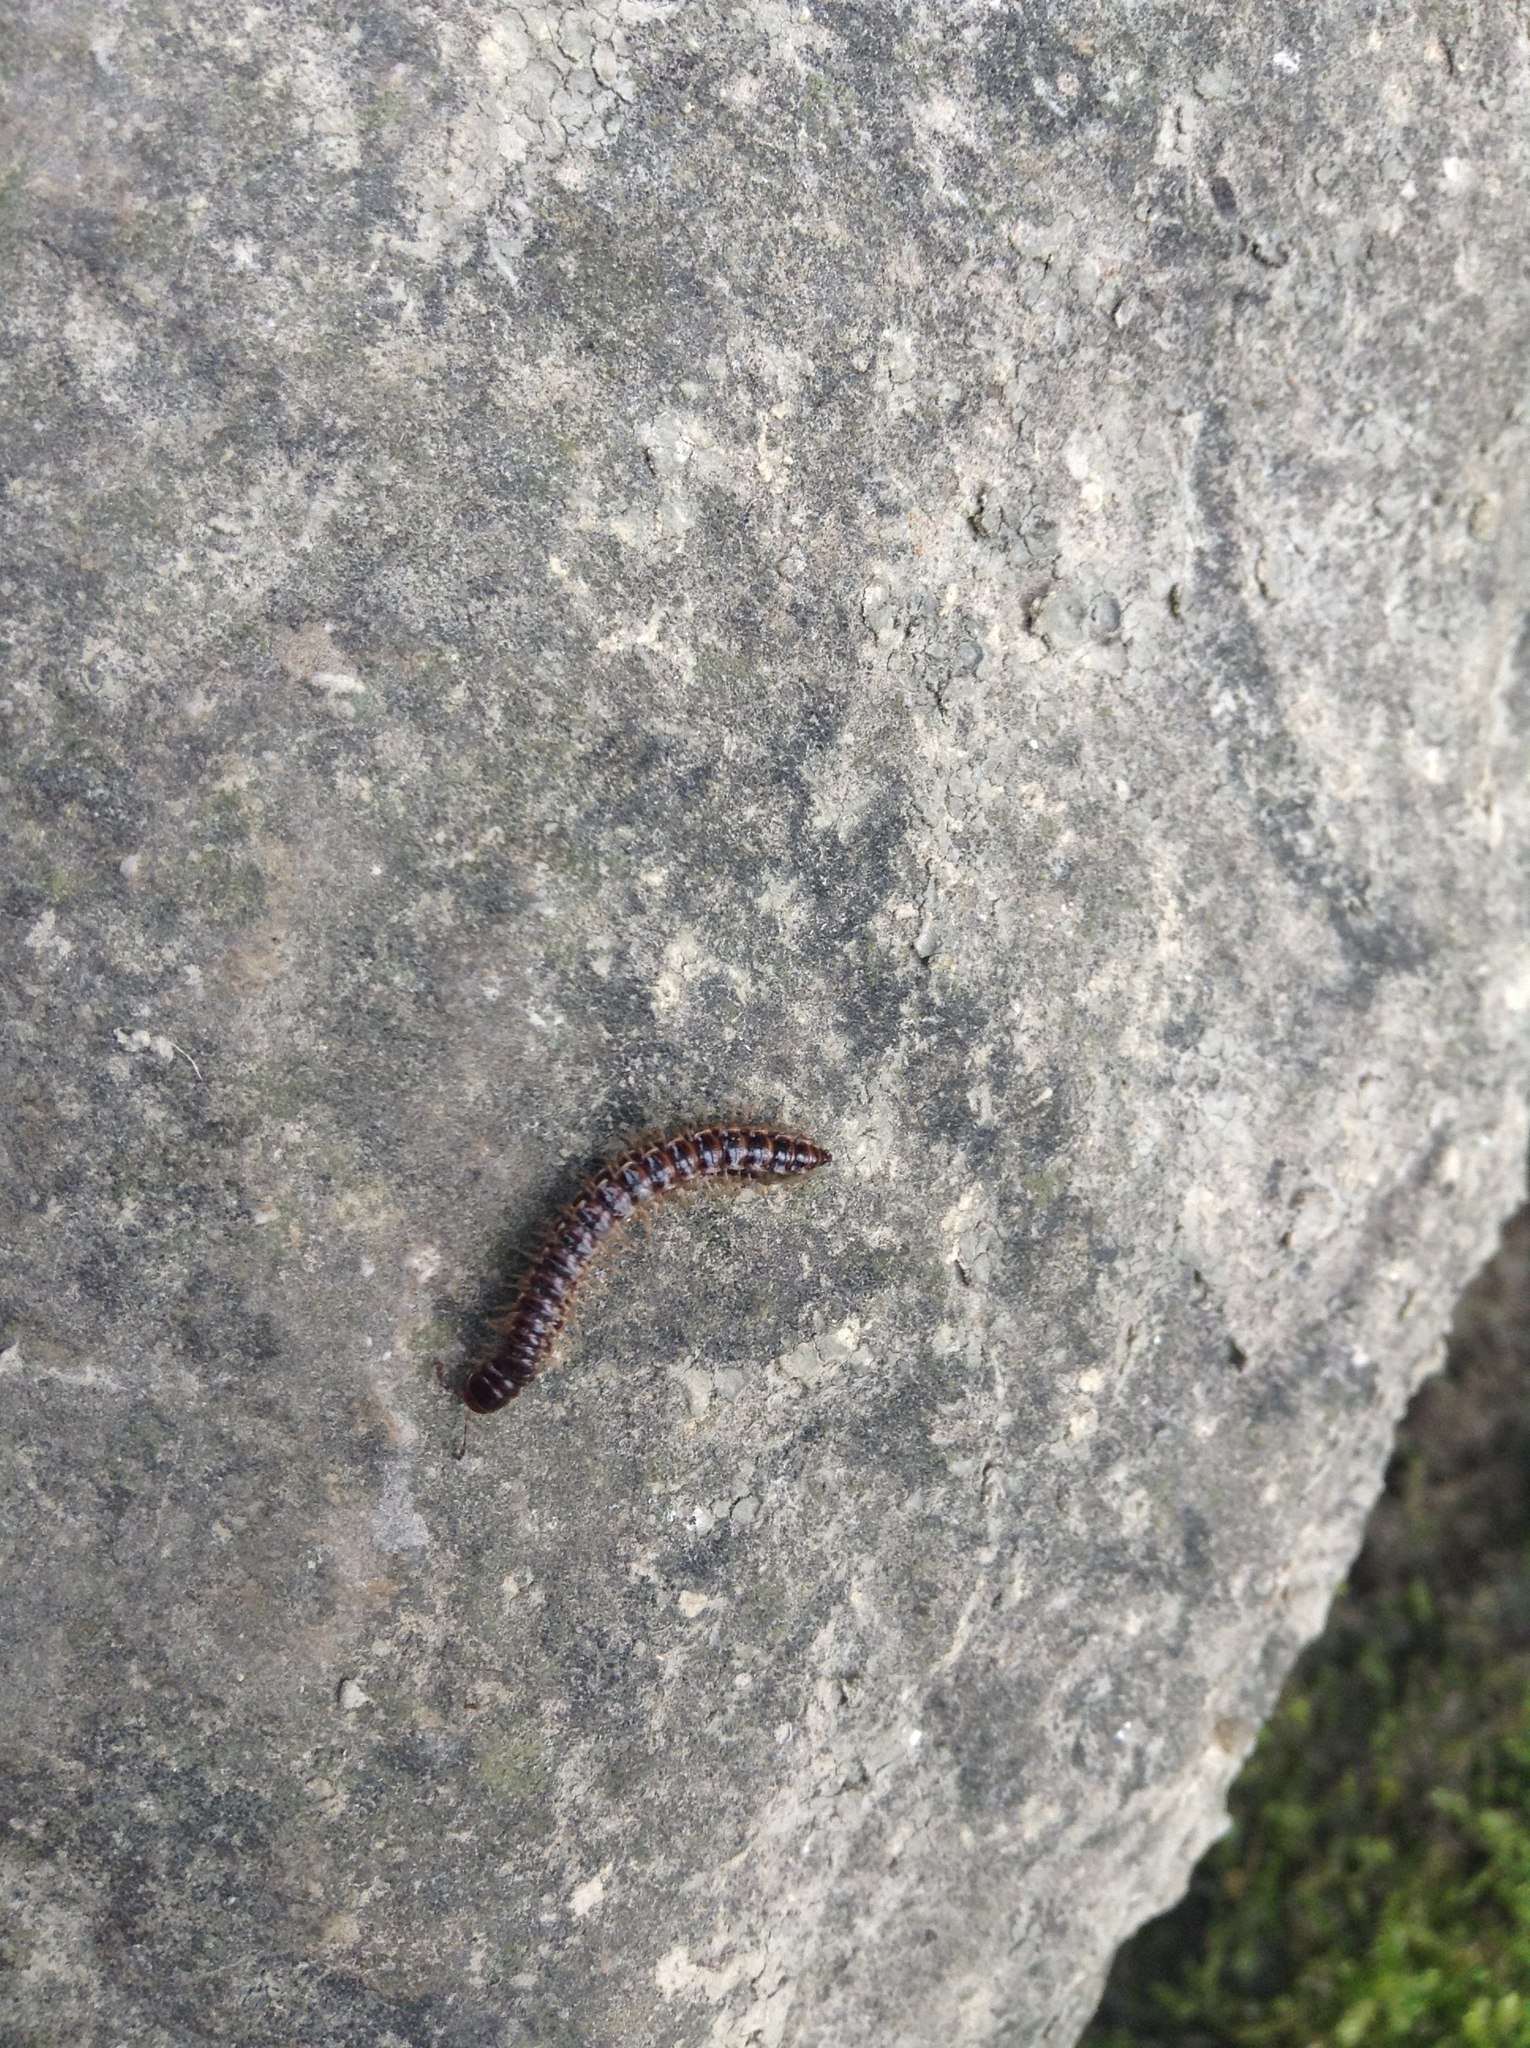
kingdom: Animalia
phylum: Arthropoda
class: Diplopoda
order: Polydesmida
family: Paradoxosomatidae
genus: Oxidus
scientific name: Oxidus gracilis
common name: Greenhouse millipede
